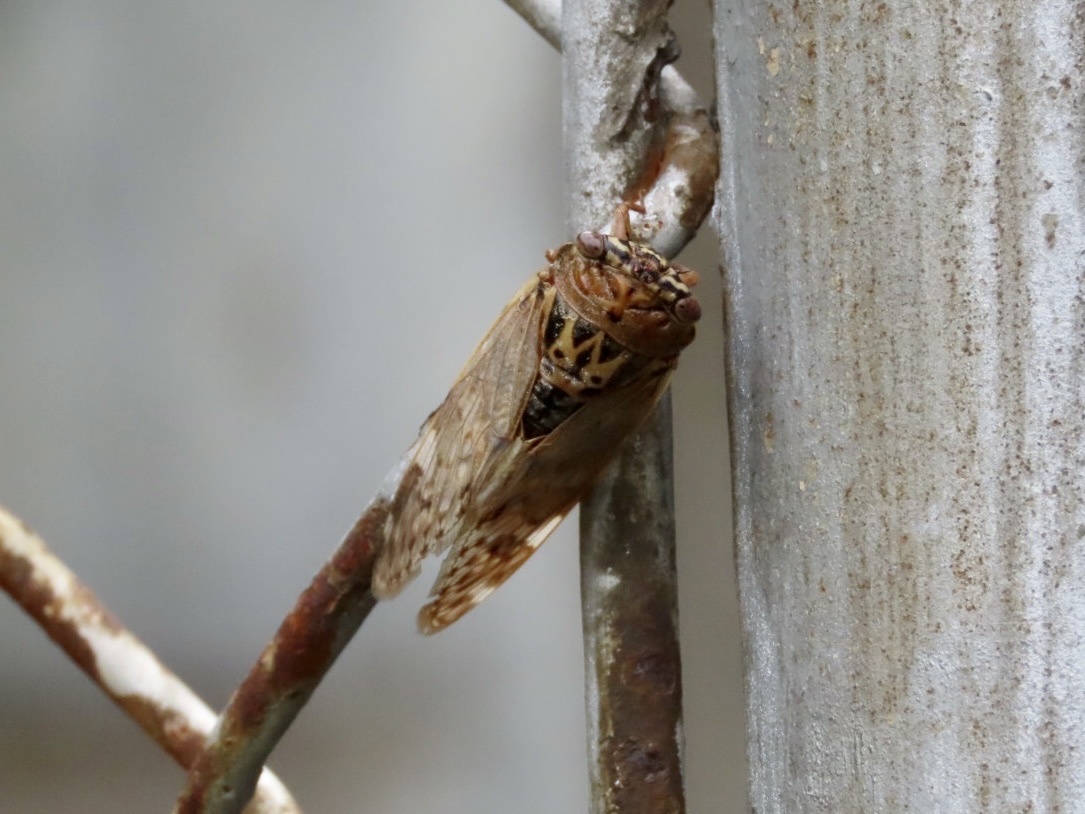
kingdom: Animalia
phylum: Arthropoda
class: Insecta
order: Hemiptera
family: Cicadidae
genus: Platypleura
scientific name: Platypleura hilpa
